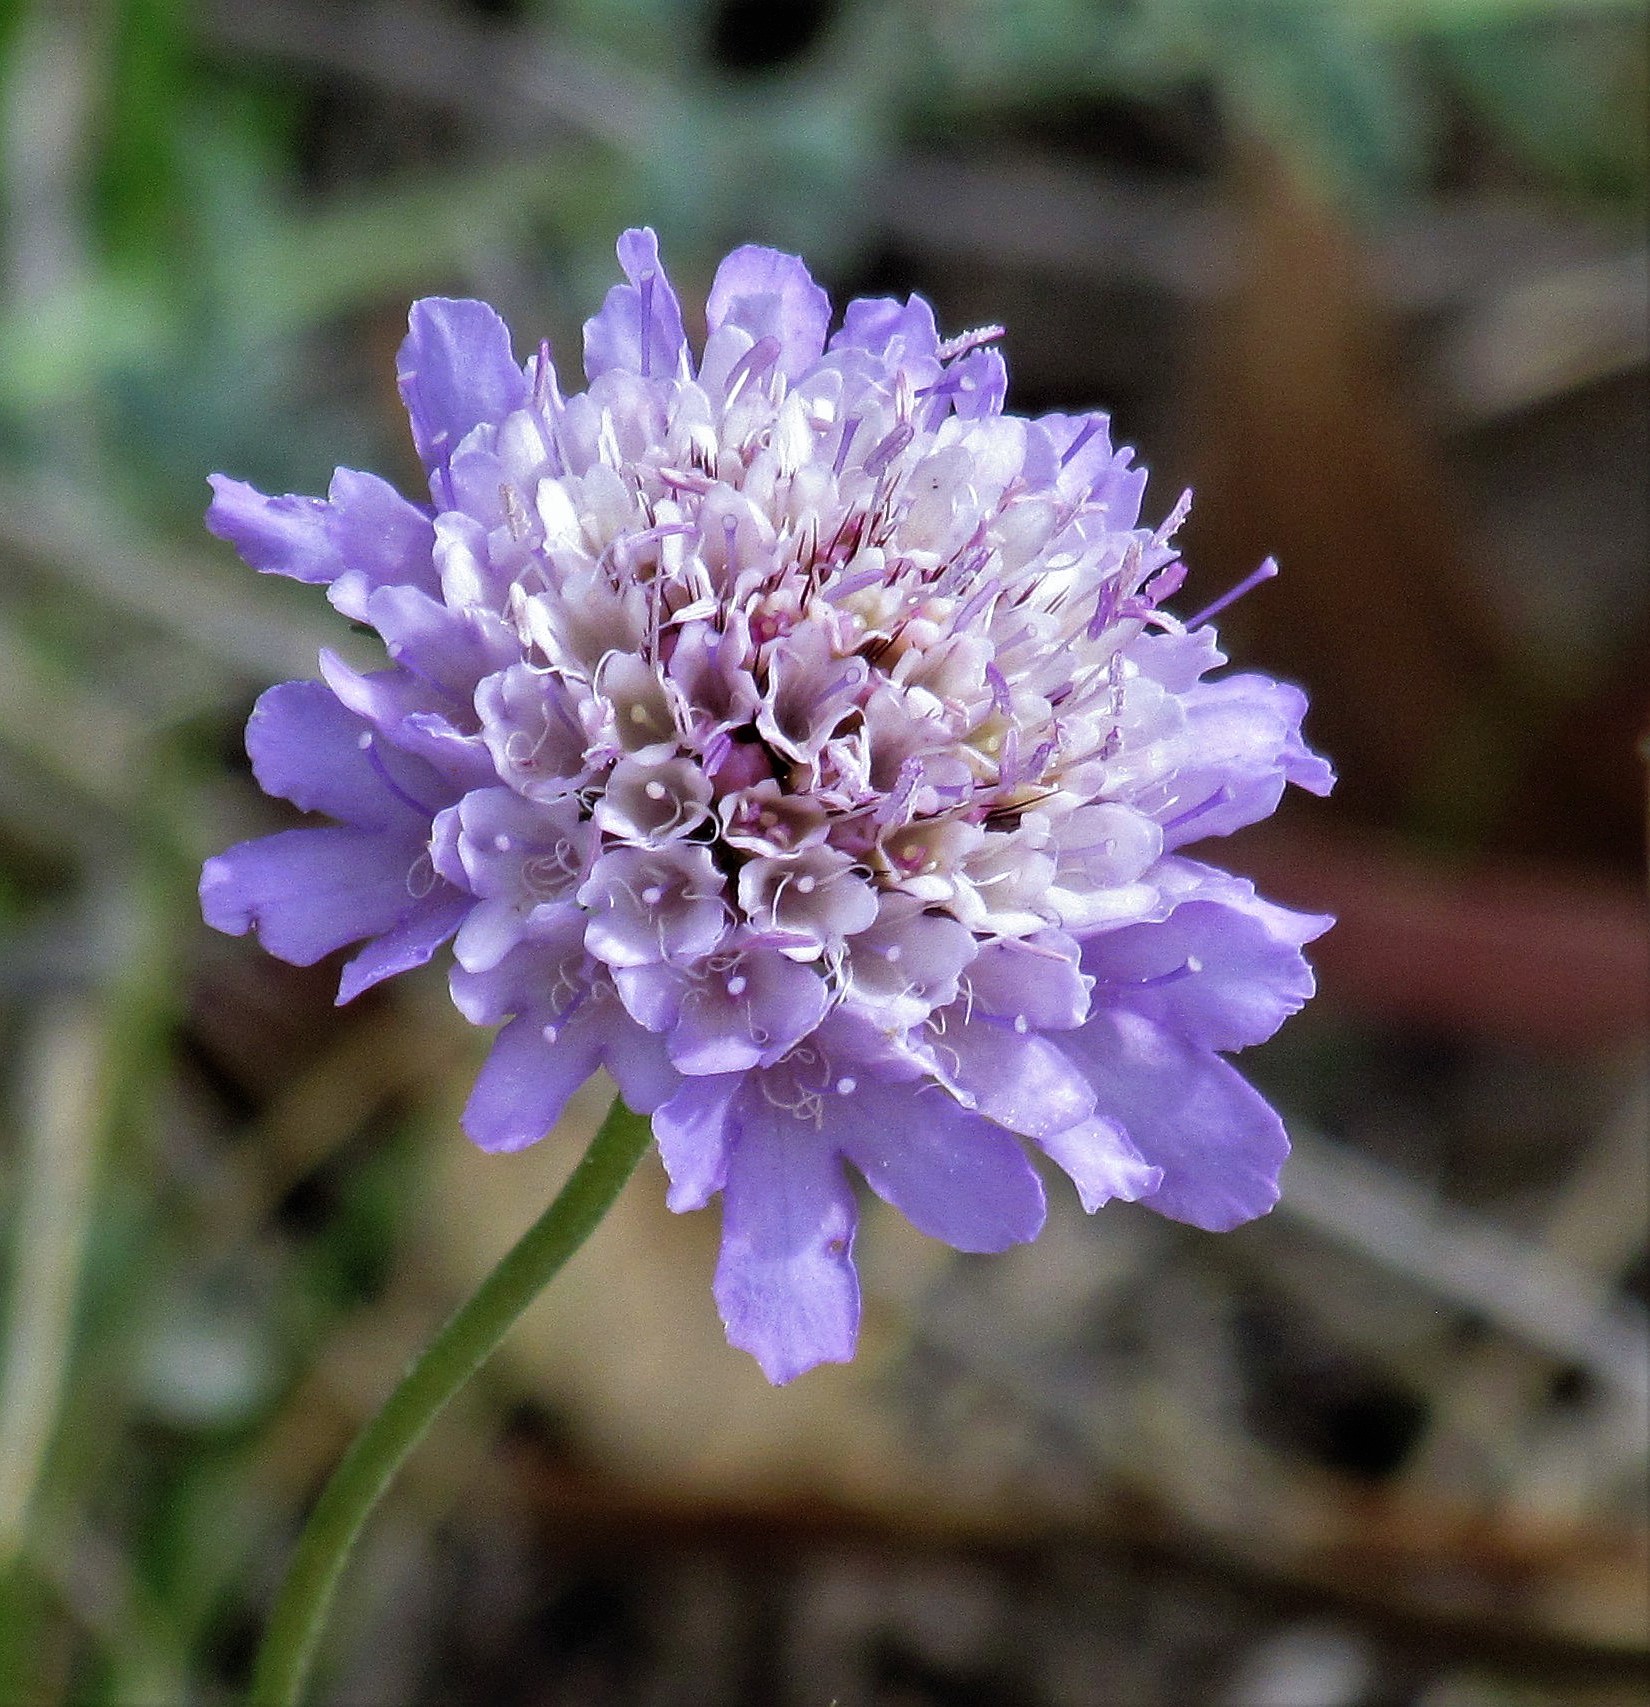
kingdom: Plantae
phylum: Tracheophyta
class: Magnoliopsida
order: Dipsacales
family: Caprifoliaceae
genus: Sixalix
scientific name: Sixalix atropurpurea
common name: Sweet scabious
